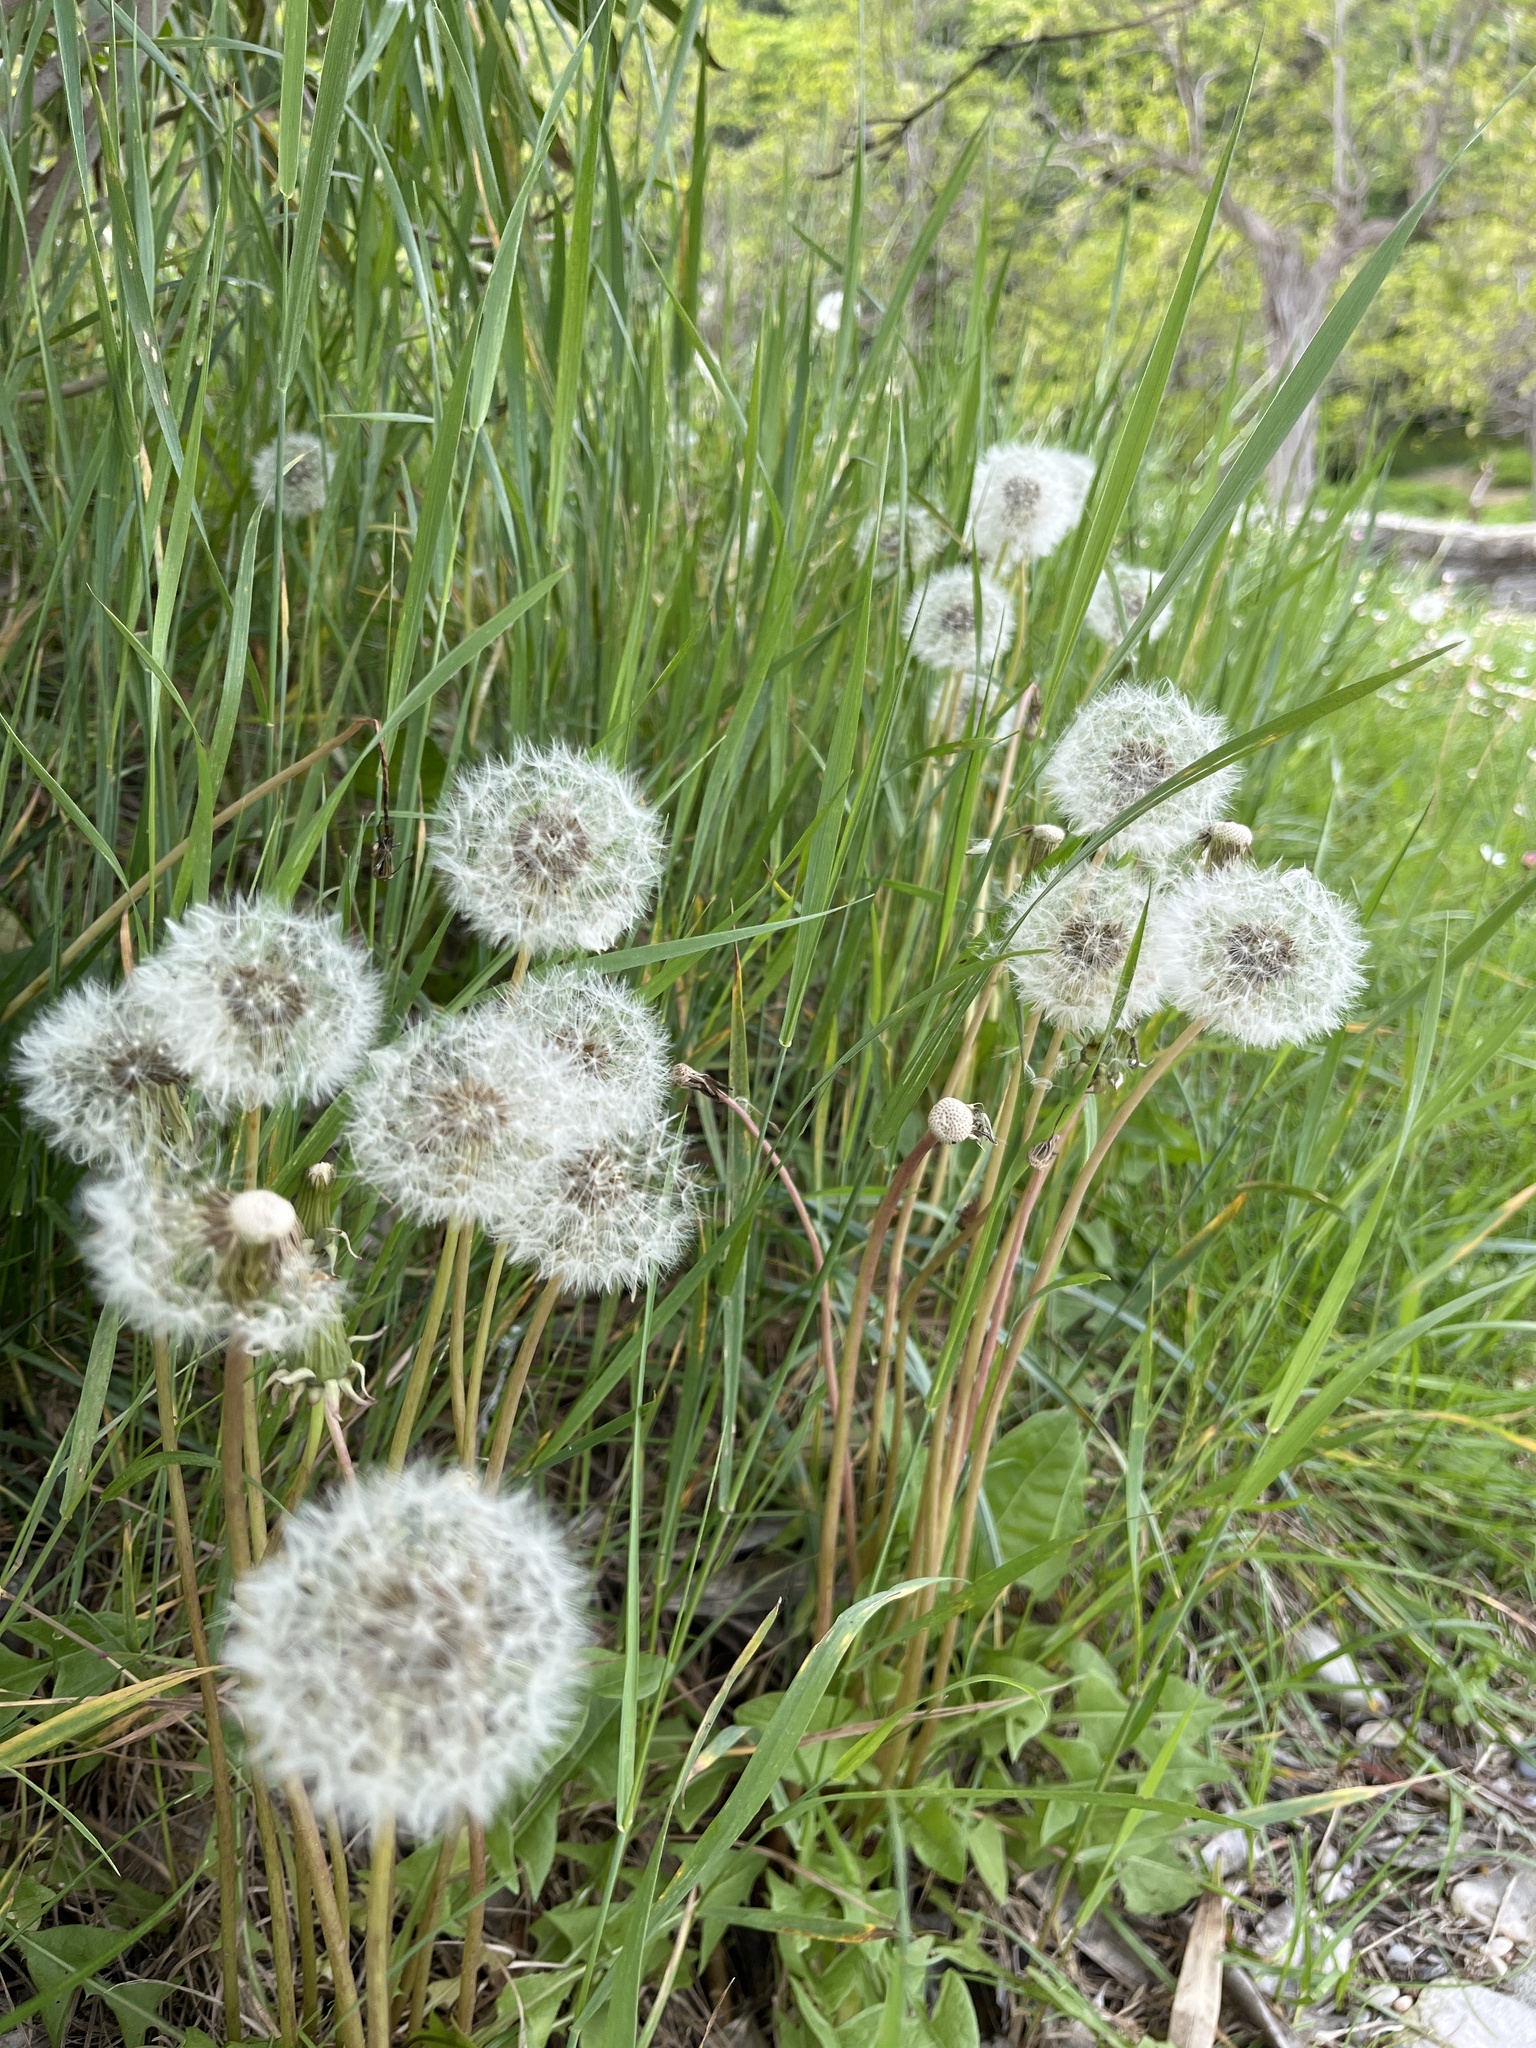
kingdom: Plantae
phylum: Tracheophyta
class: Magnoliopsida
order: Asterales
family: Asteraceae
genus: Taraxacum
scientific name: Taraxacum officinale
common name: Common dandelion
